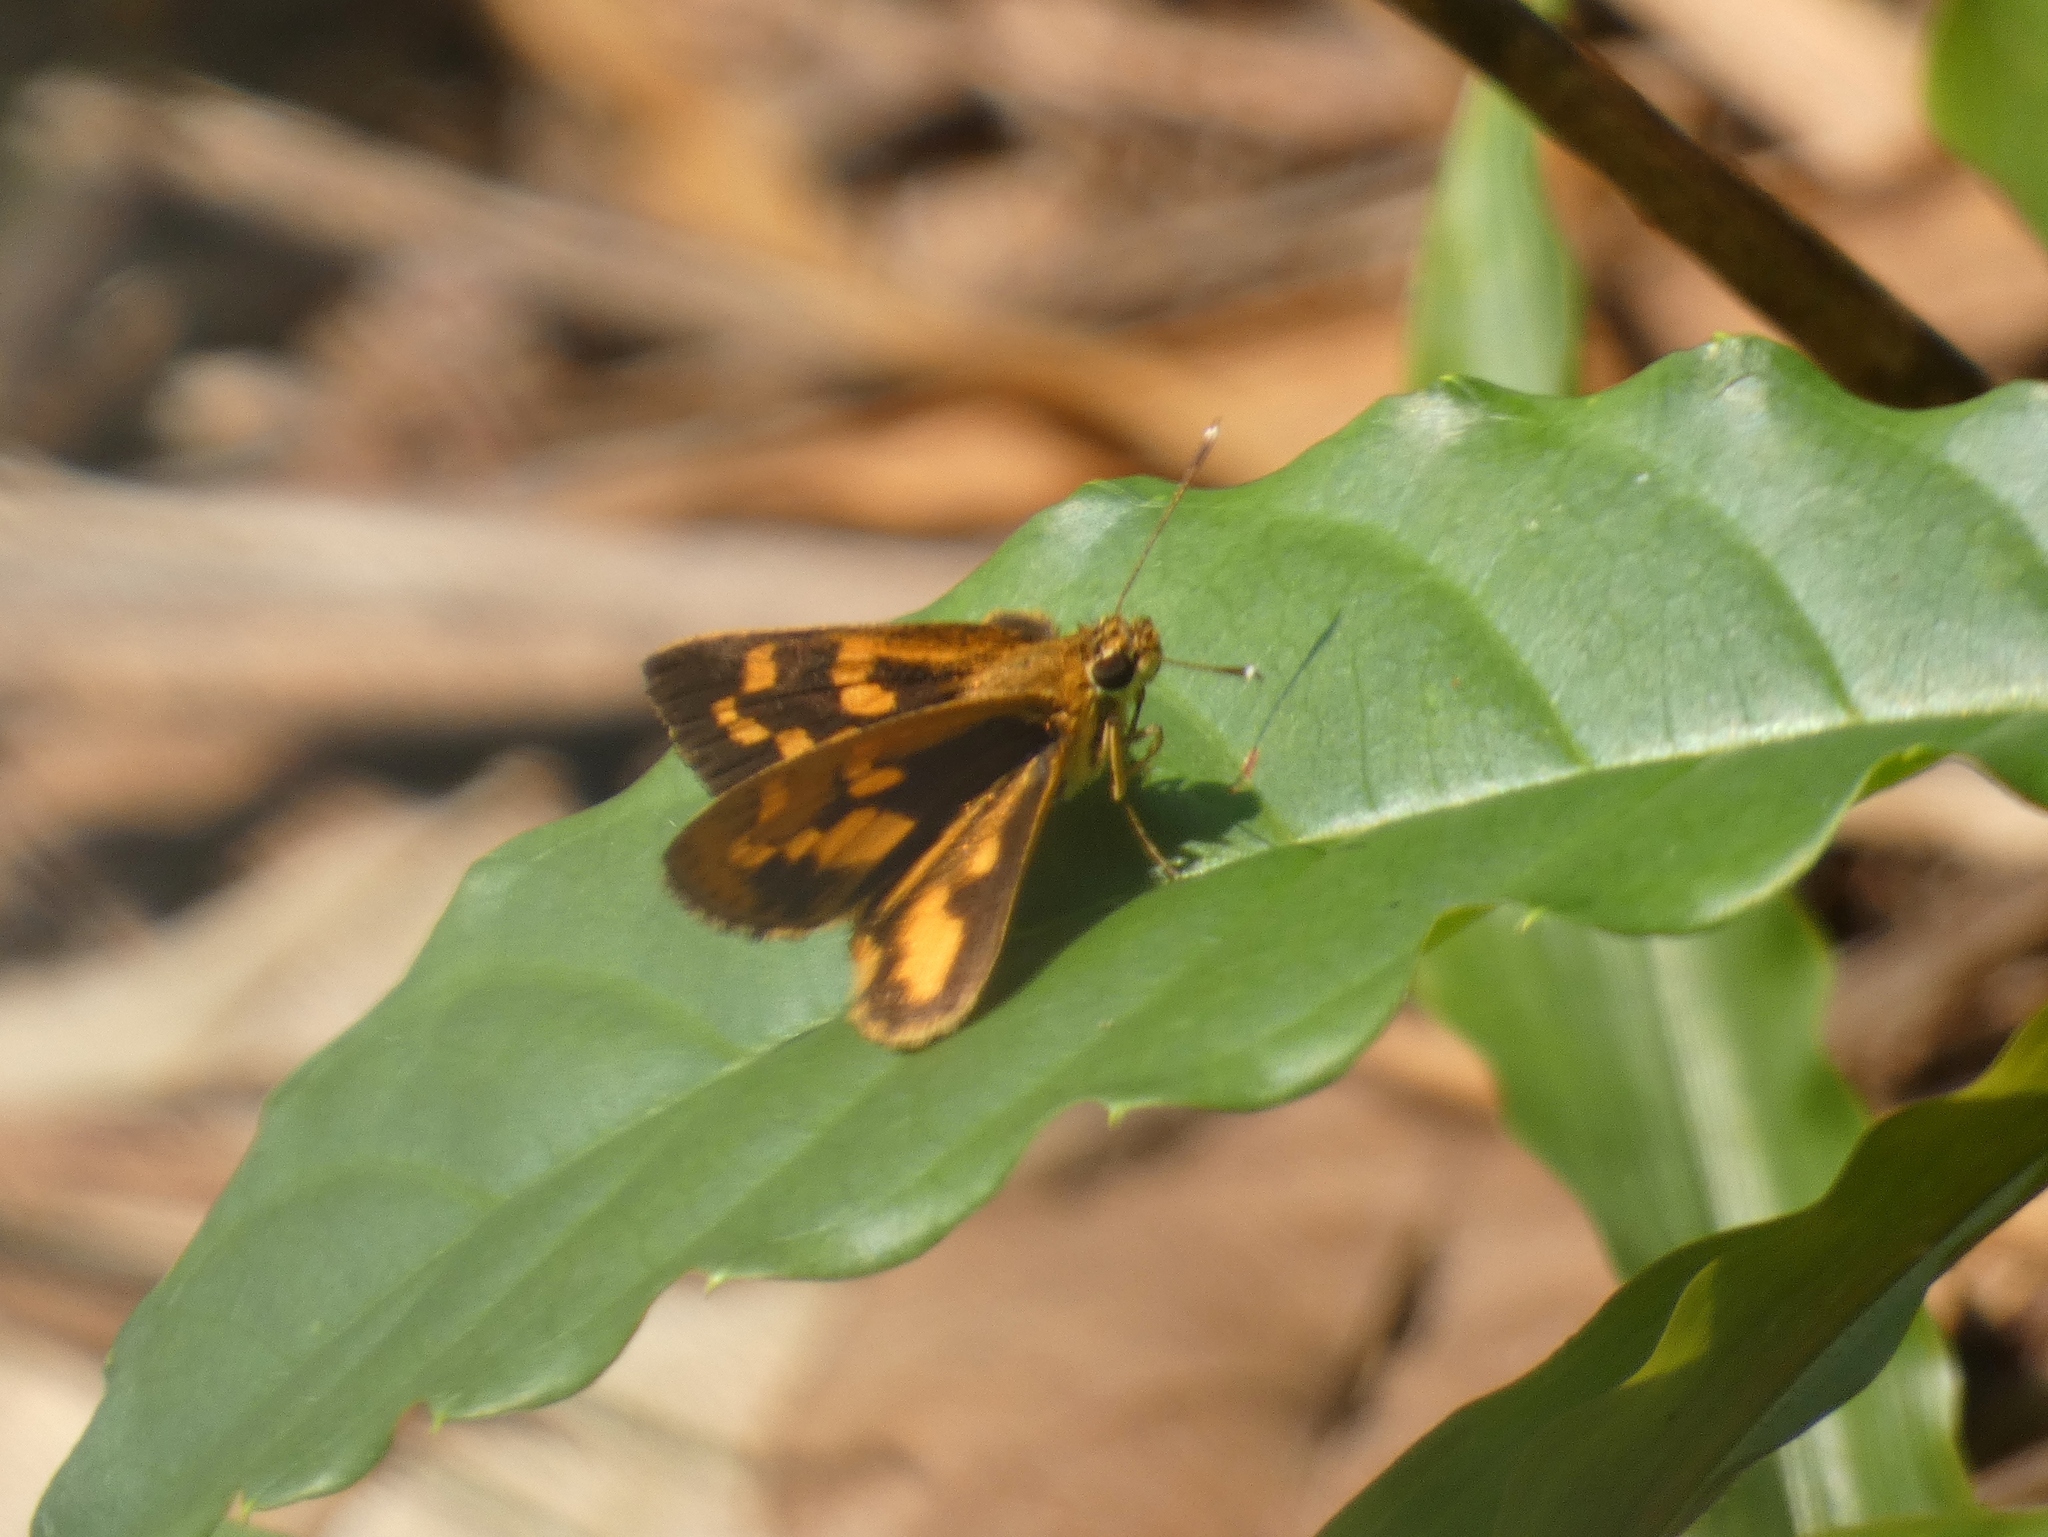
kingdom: Animalia
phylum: Arthropoda
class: Insecta
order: Lepidoptera
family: Hesperiidae
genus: Pardaleodes
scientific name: Pardaleodes incerta
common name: Savanna pathfinder
